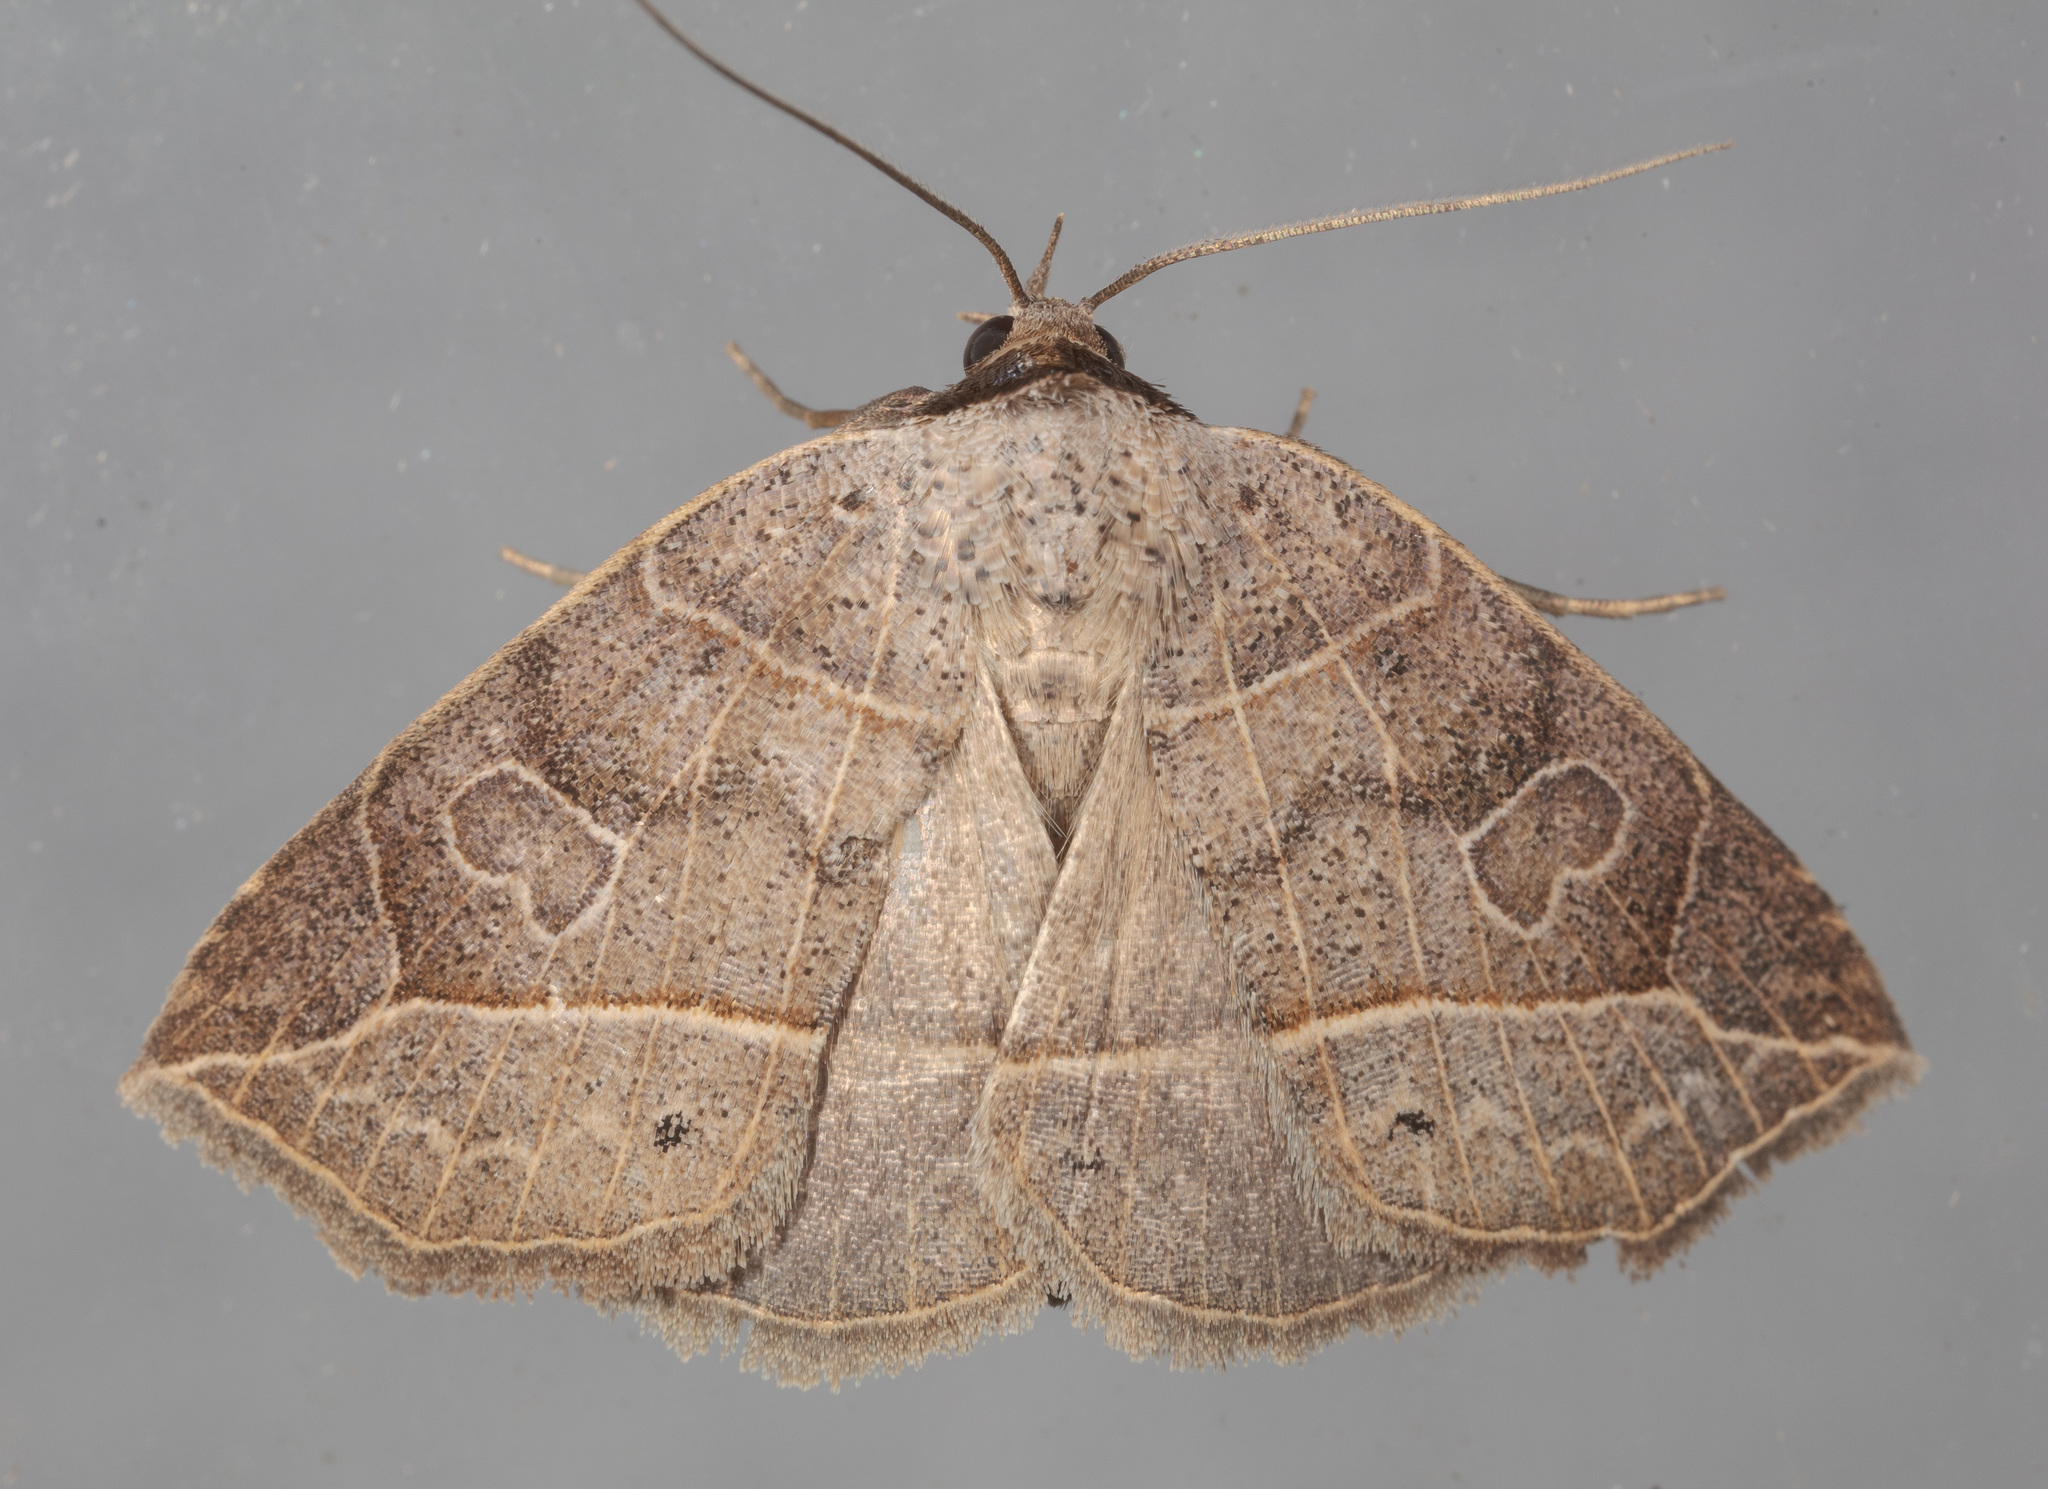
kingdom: Animalia
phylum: Arthropoda
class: Insecta
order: Lepidoptera
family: Erebidae
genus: Isogona
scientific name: Isogona tenuis
